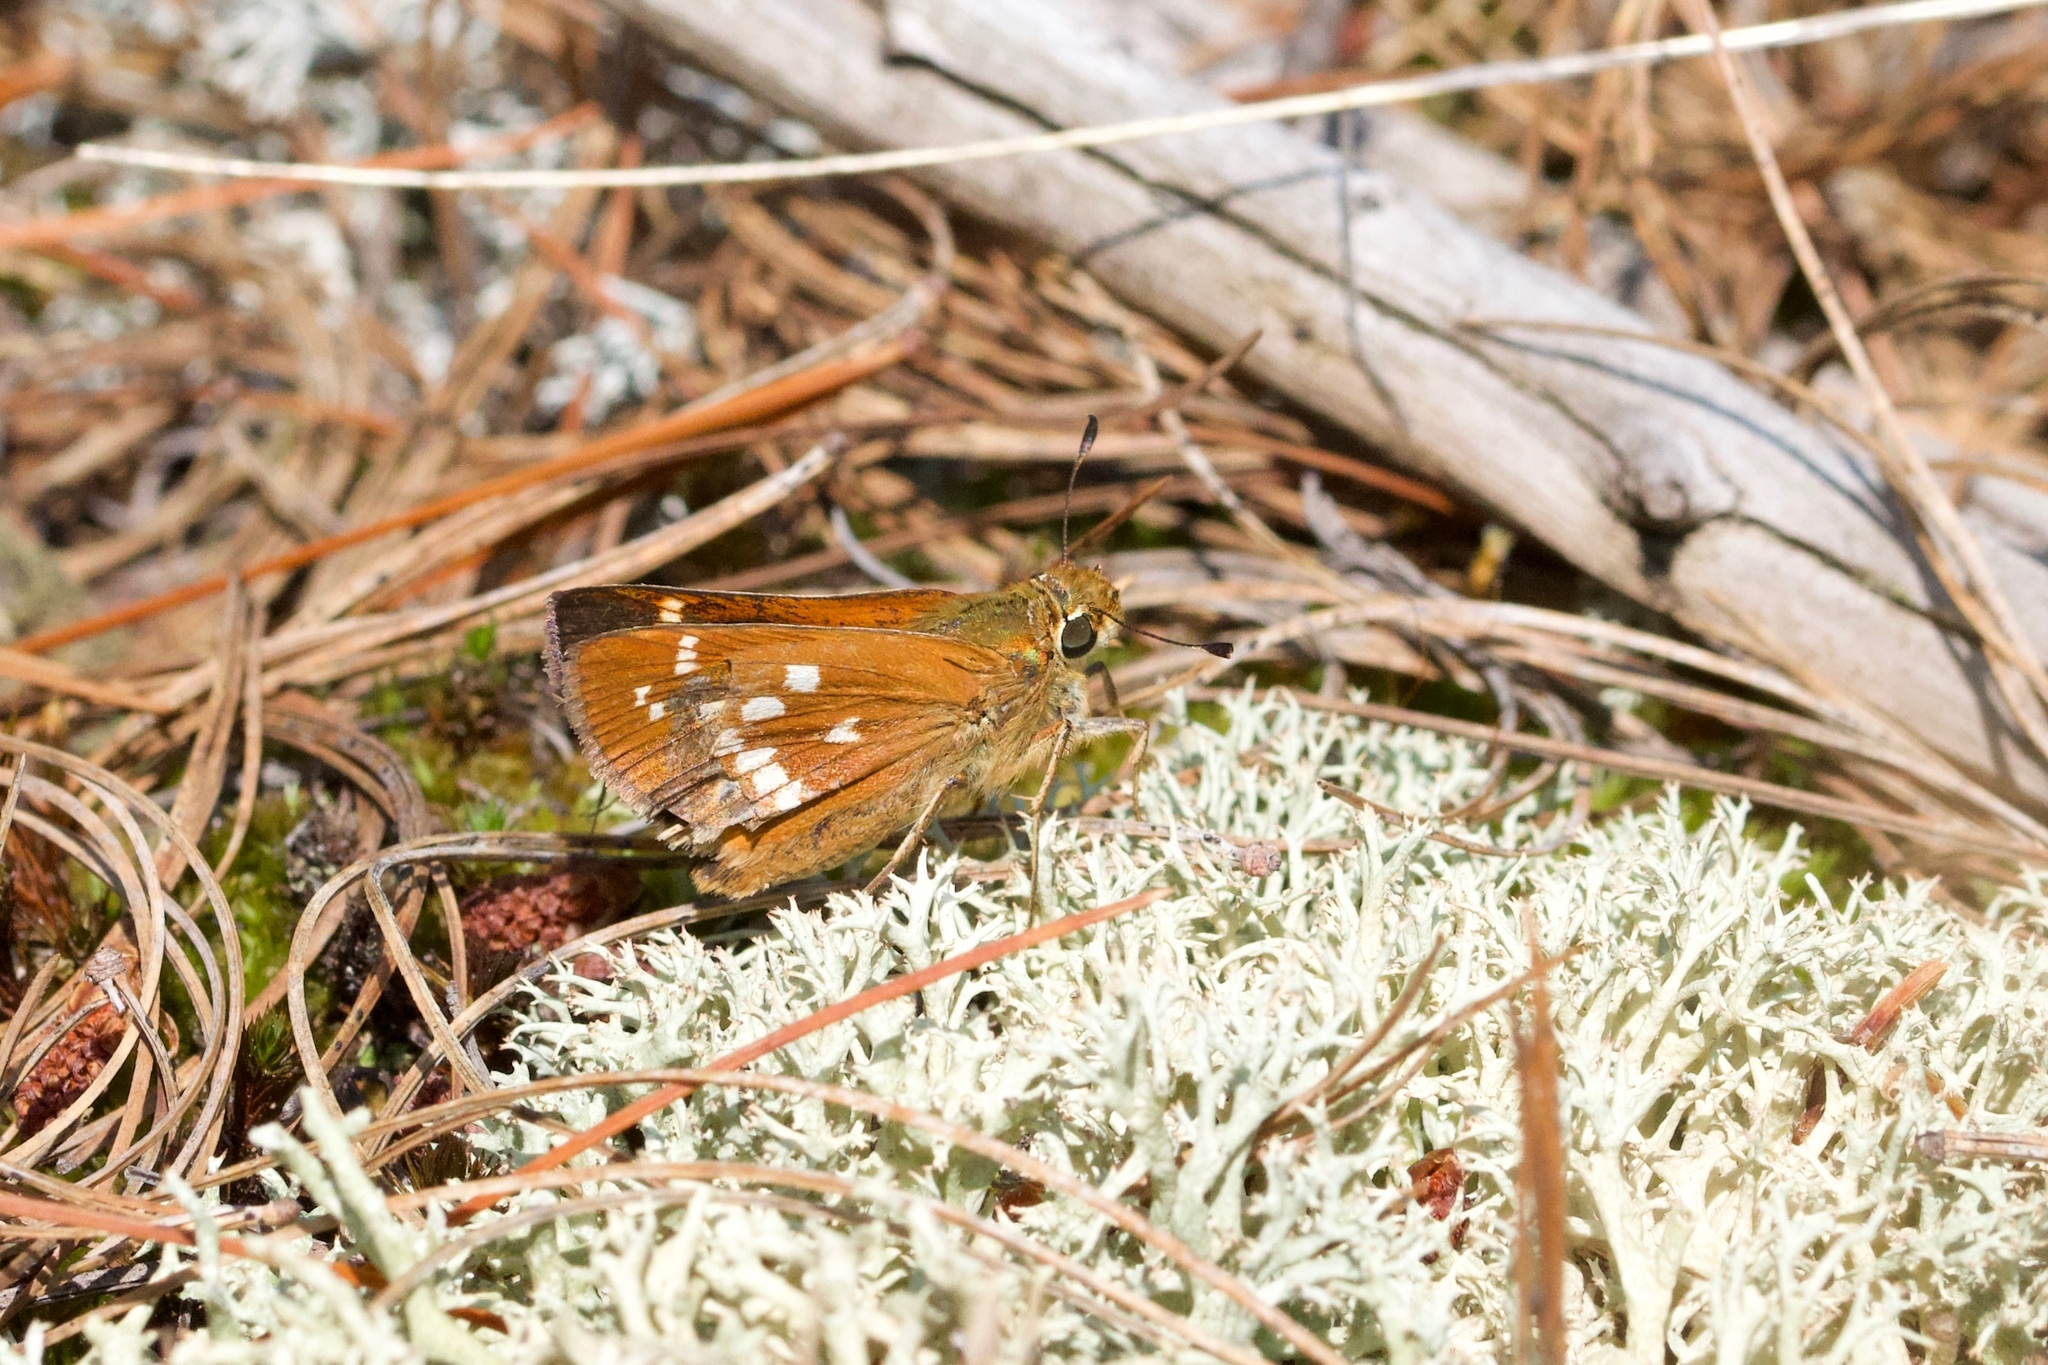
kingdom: Animalia
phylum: Arthropoda
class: Insecta
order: Lepidoptera
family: Hesperiidae
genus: Hesperia
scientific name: Hesperia leonardus
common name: Leonard's skipper
